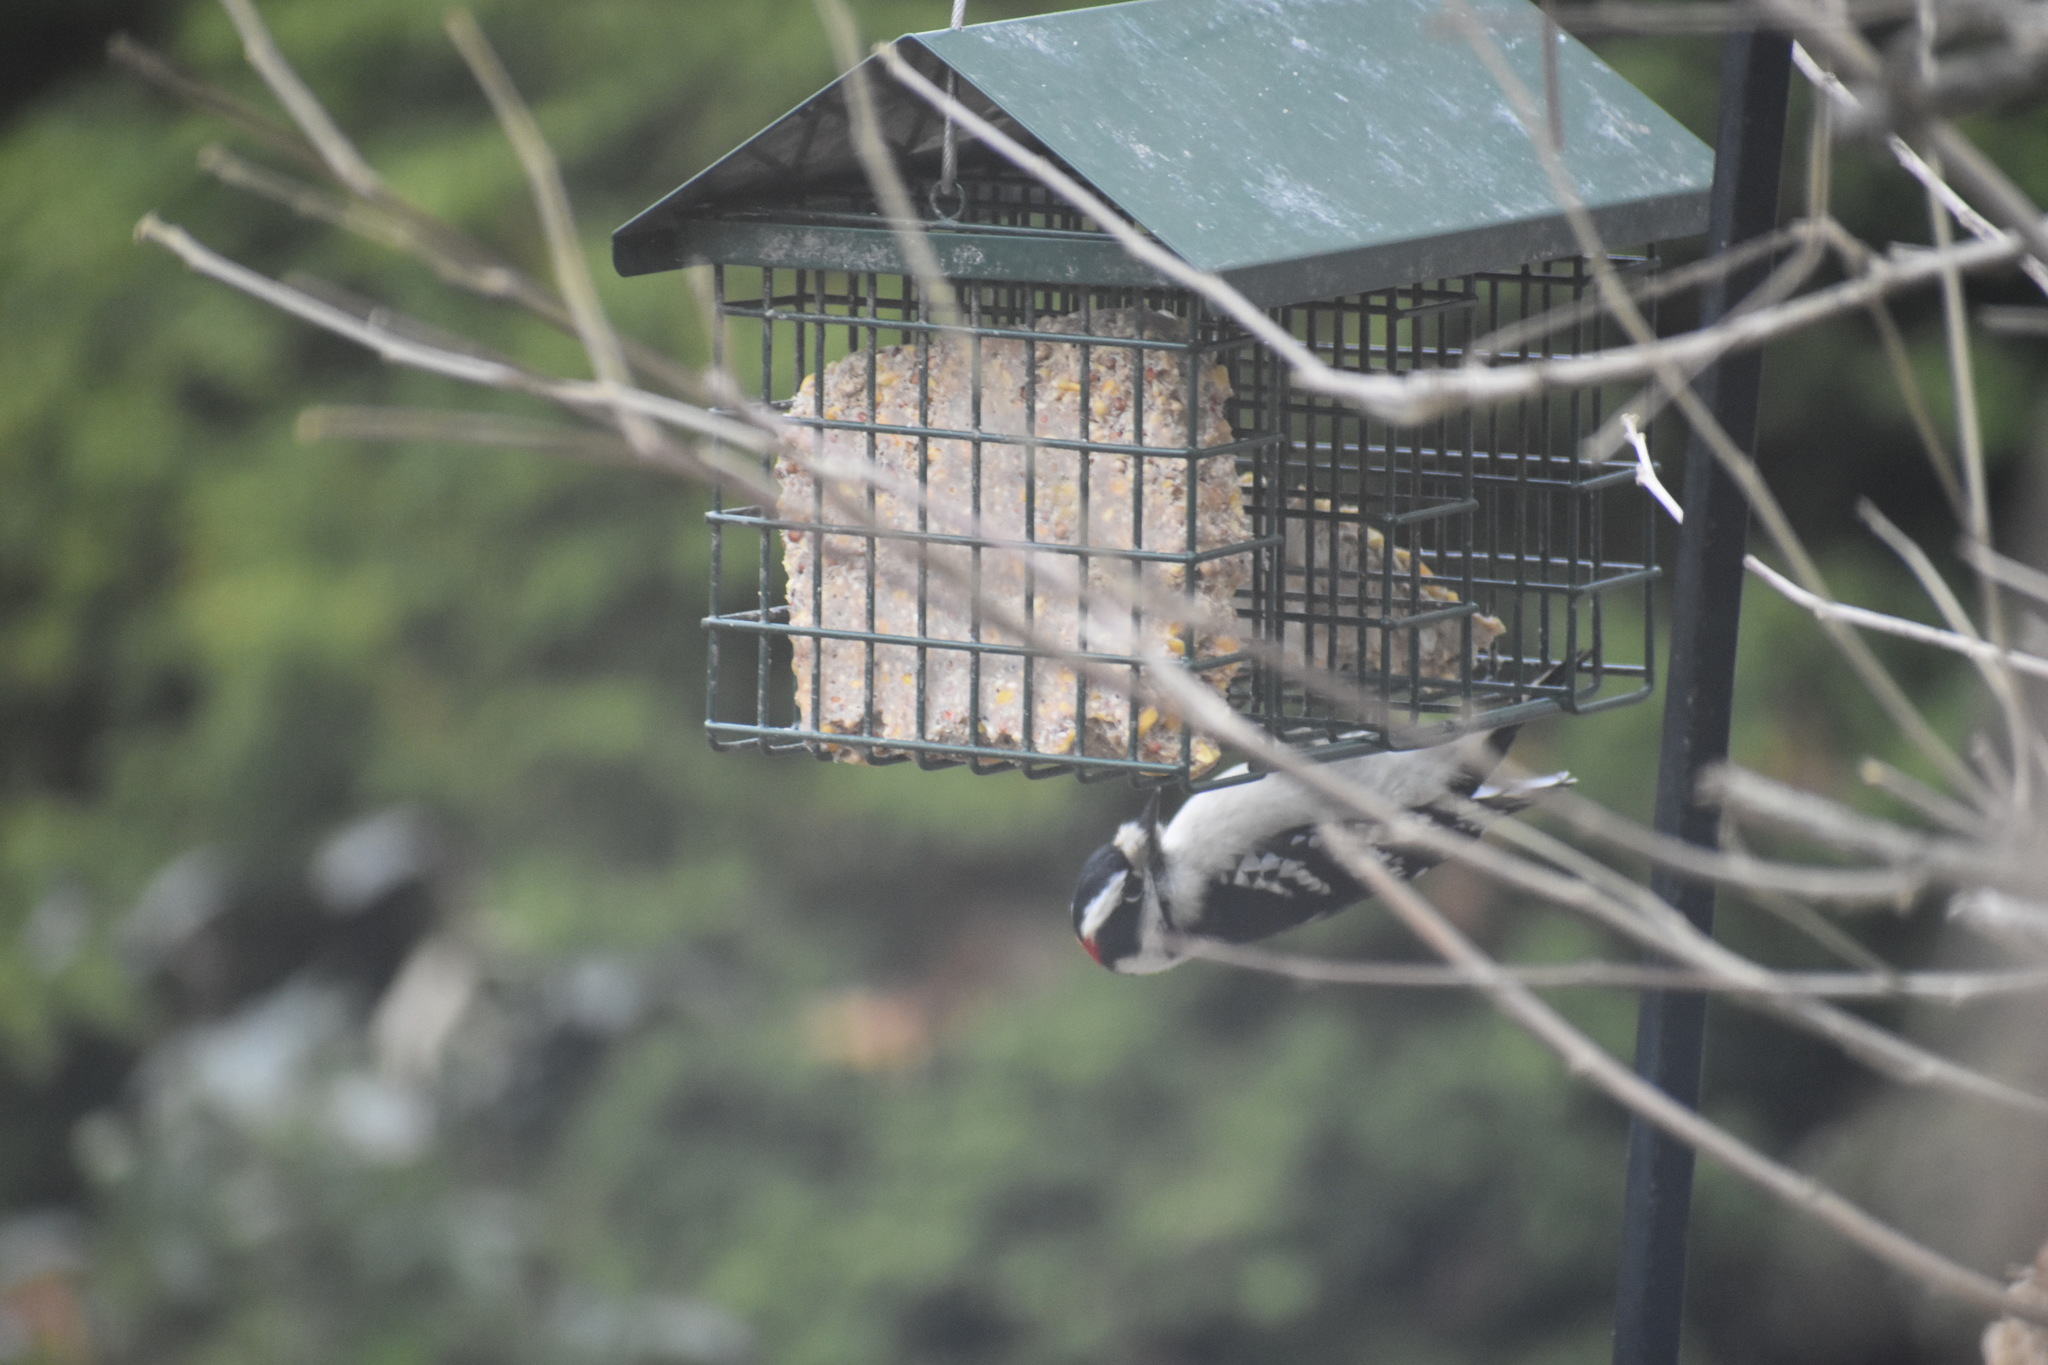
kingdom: Animalia
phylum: Chordata
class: Aves
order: Piciformes
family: Picidae
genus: Dryobates
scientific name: Dryobates pubescens
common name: Downy woodpecker
